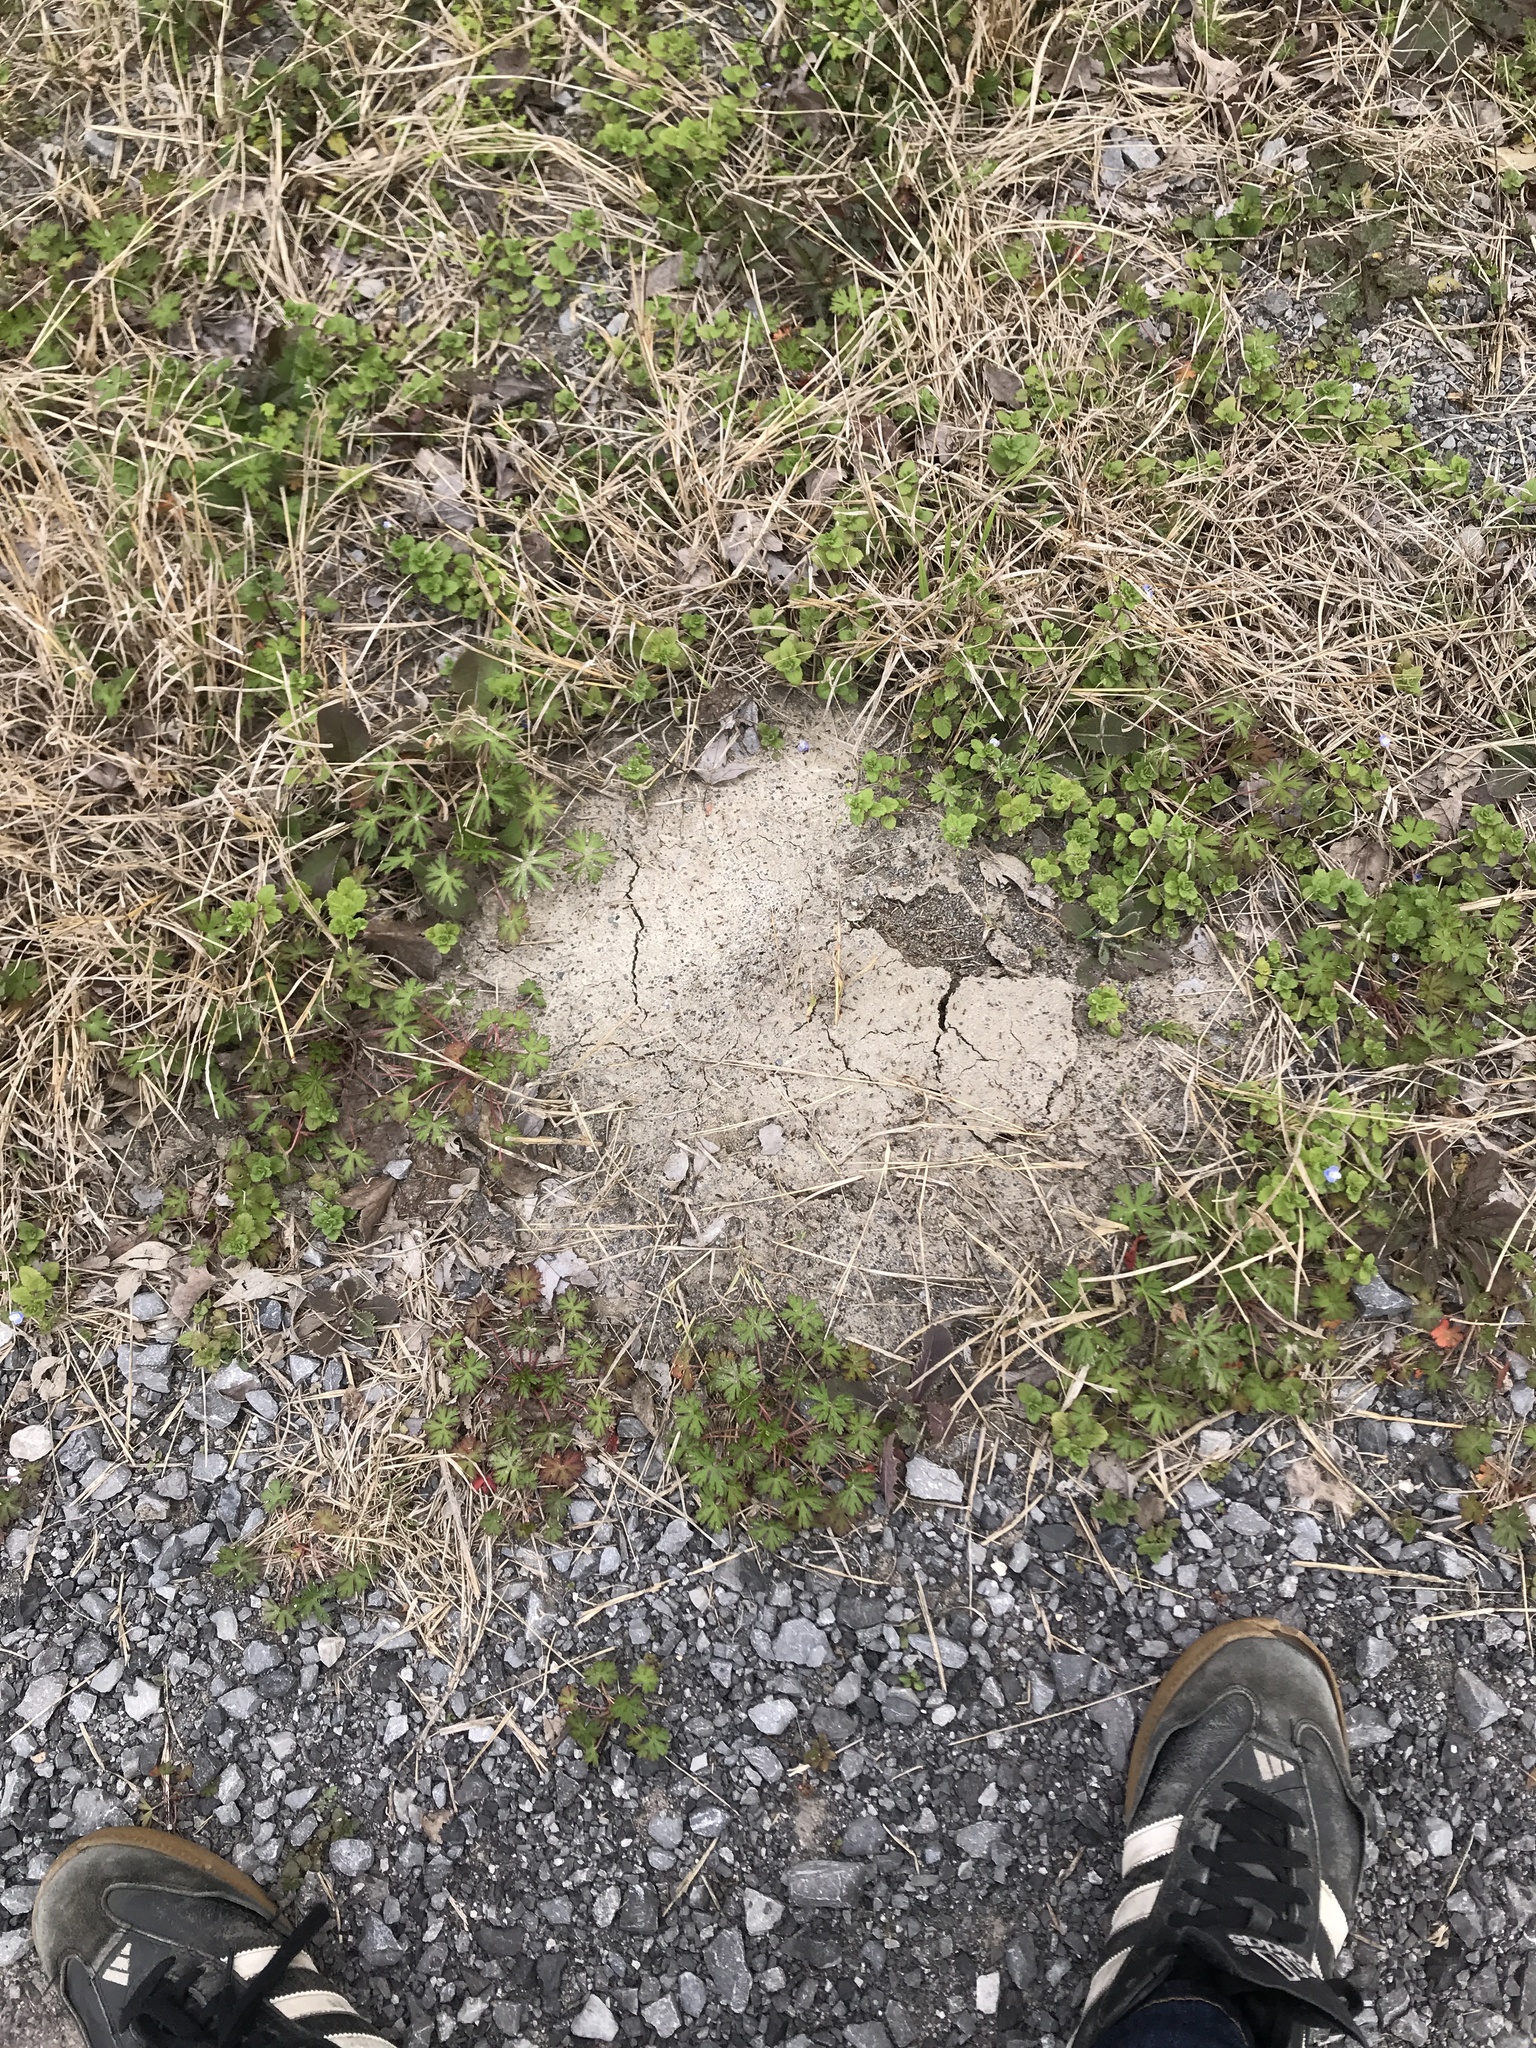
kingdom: Animalia
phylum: Arthropoda
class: Insecta
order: Hymenoptera
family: Formicidae
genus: Solenopsis
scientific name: Solenopsis invicta
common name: Red imported fire ant
